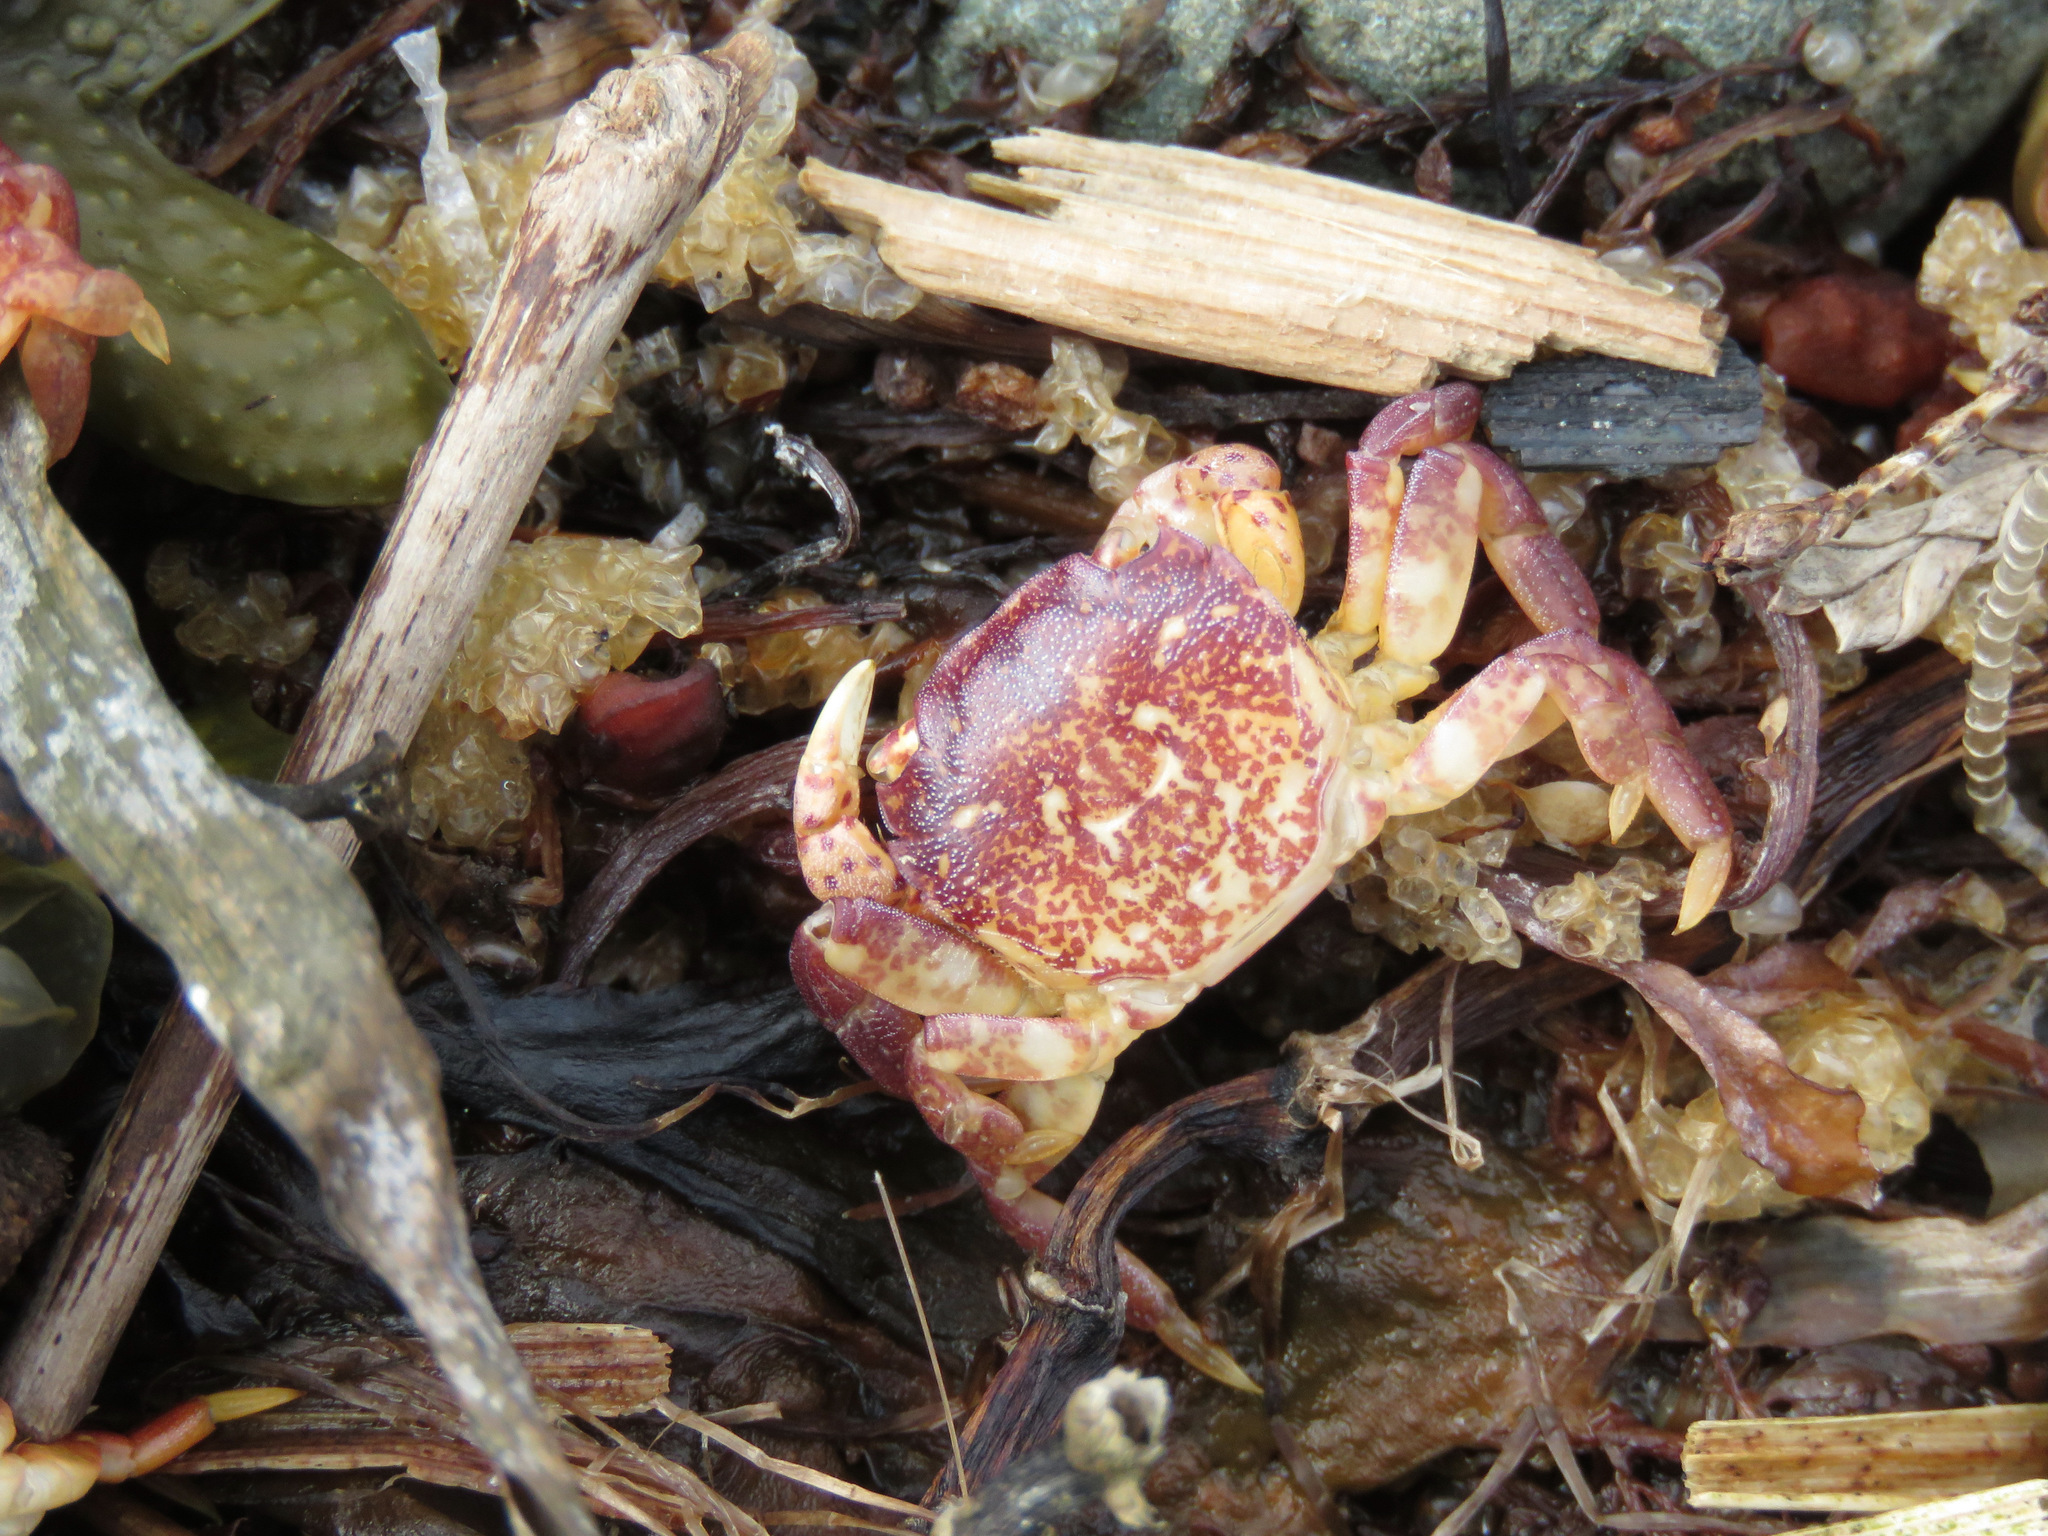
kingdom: Animalia
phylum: Arthropoda
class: Malacostraca
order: Decapoda
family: Varunidae
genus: Hemigrapsus
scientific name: Hemigrapsus nudus
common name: Purple shore crab
